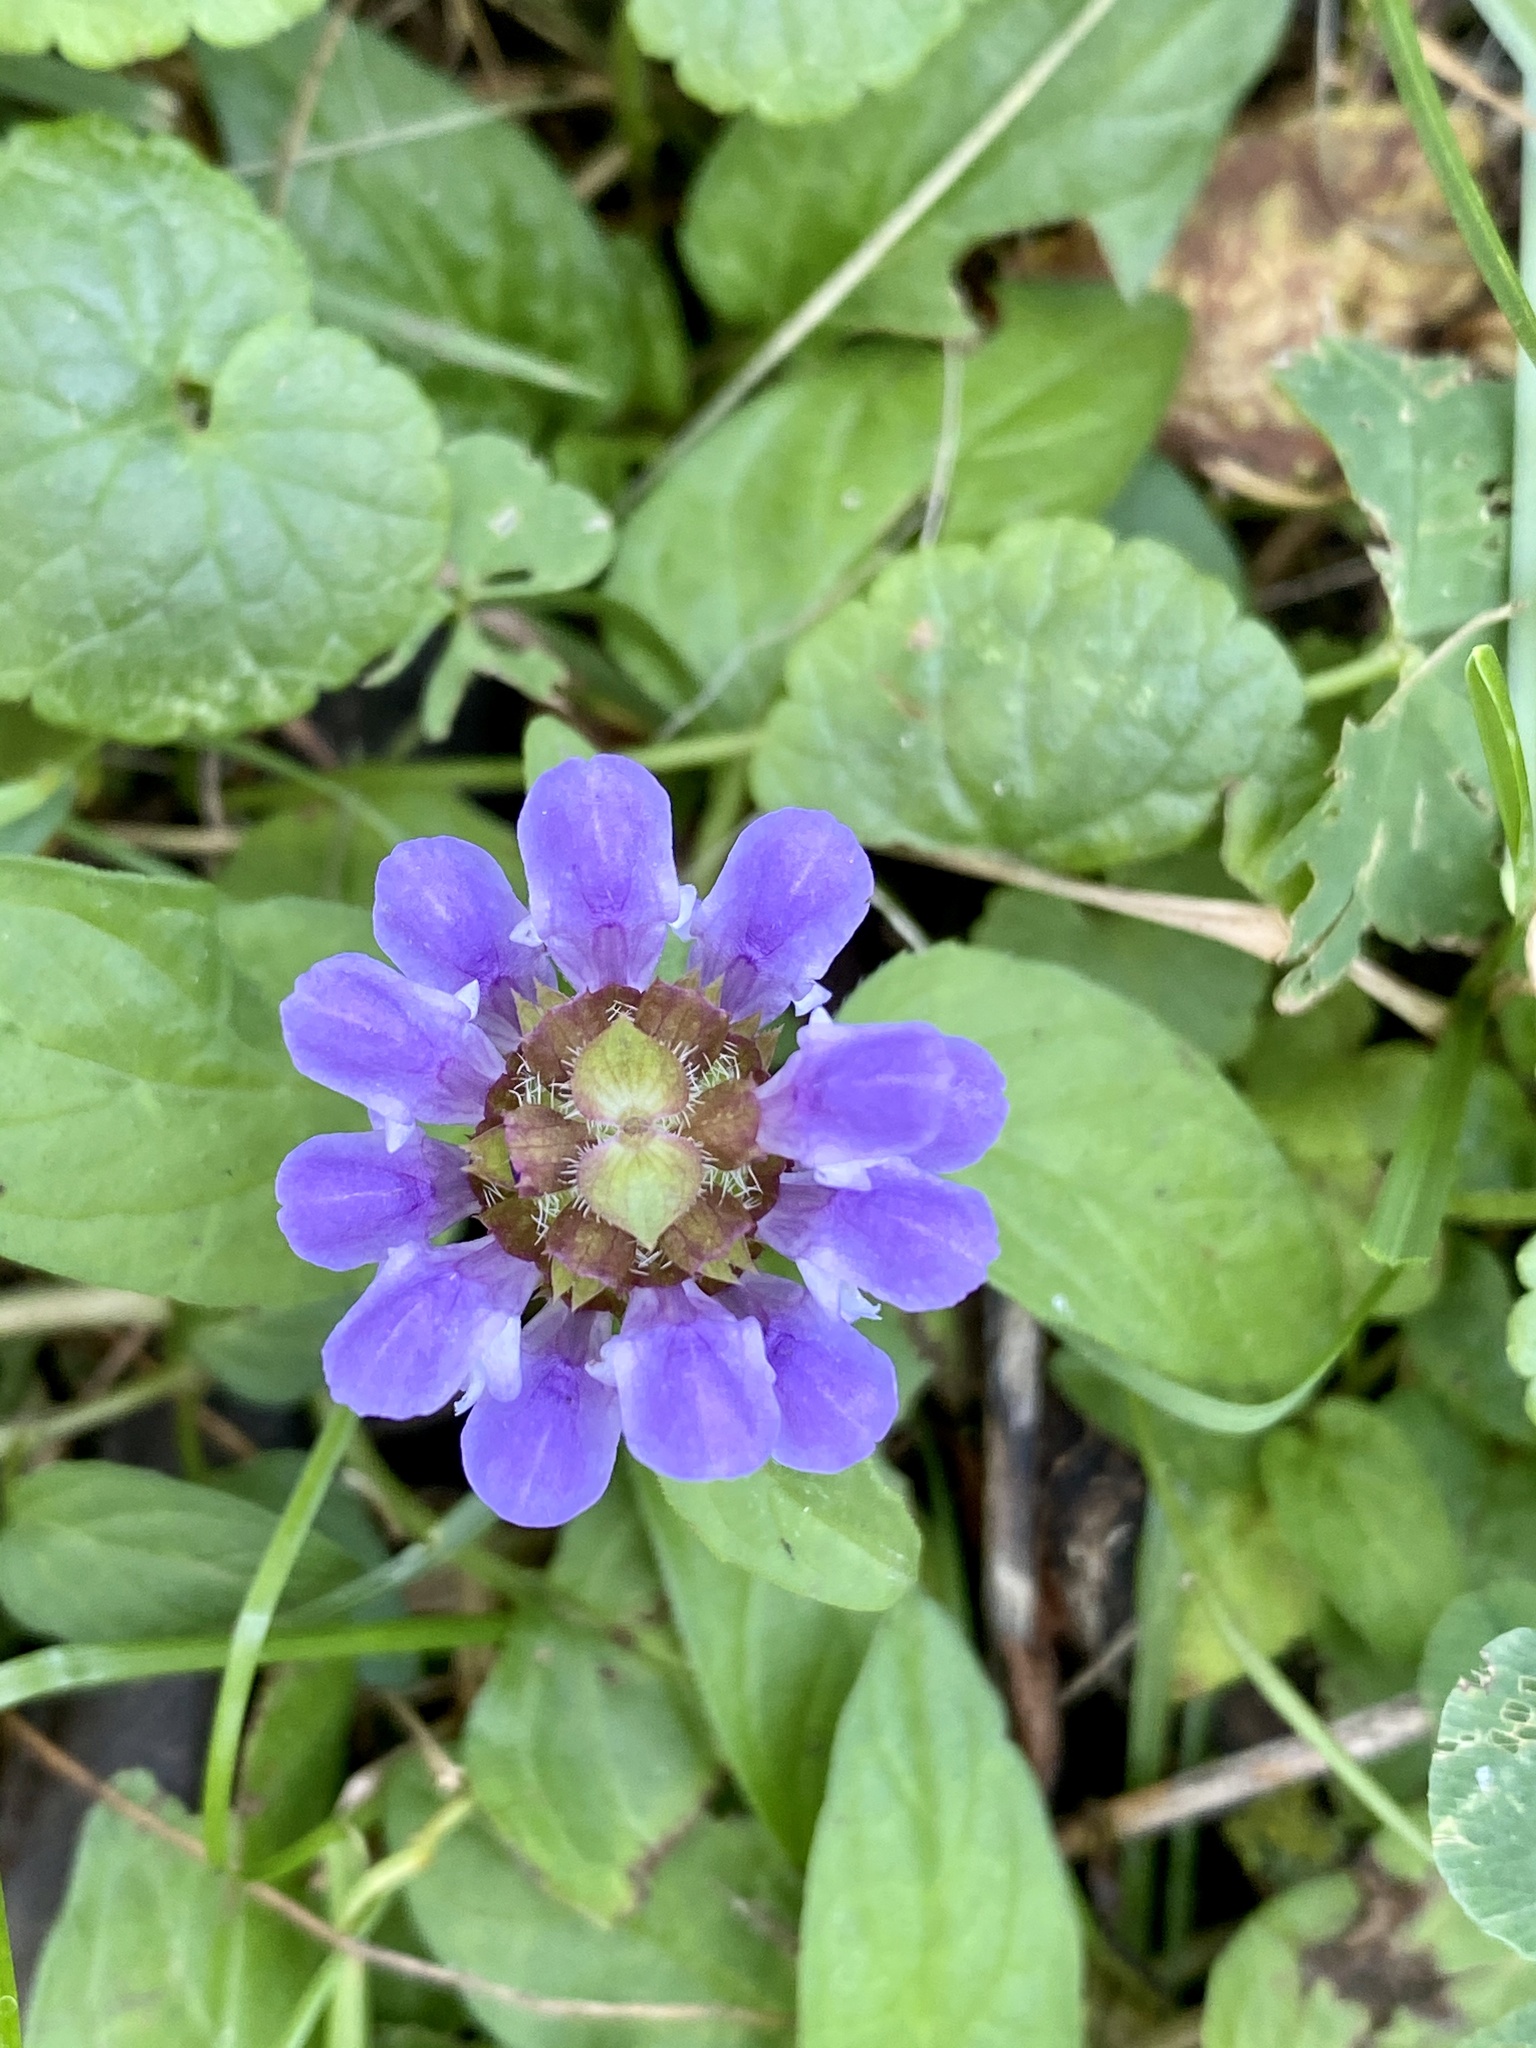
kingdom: Plantae
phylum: Tracheophyta
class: Magnoliopsida
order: Lamiales
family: Lamiaceae
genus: Prunella
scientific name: Prunella vulgaris
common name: Heal-all
